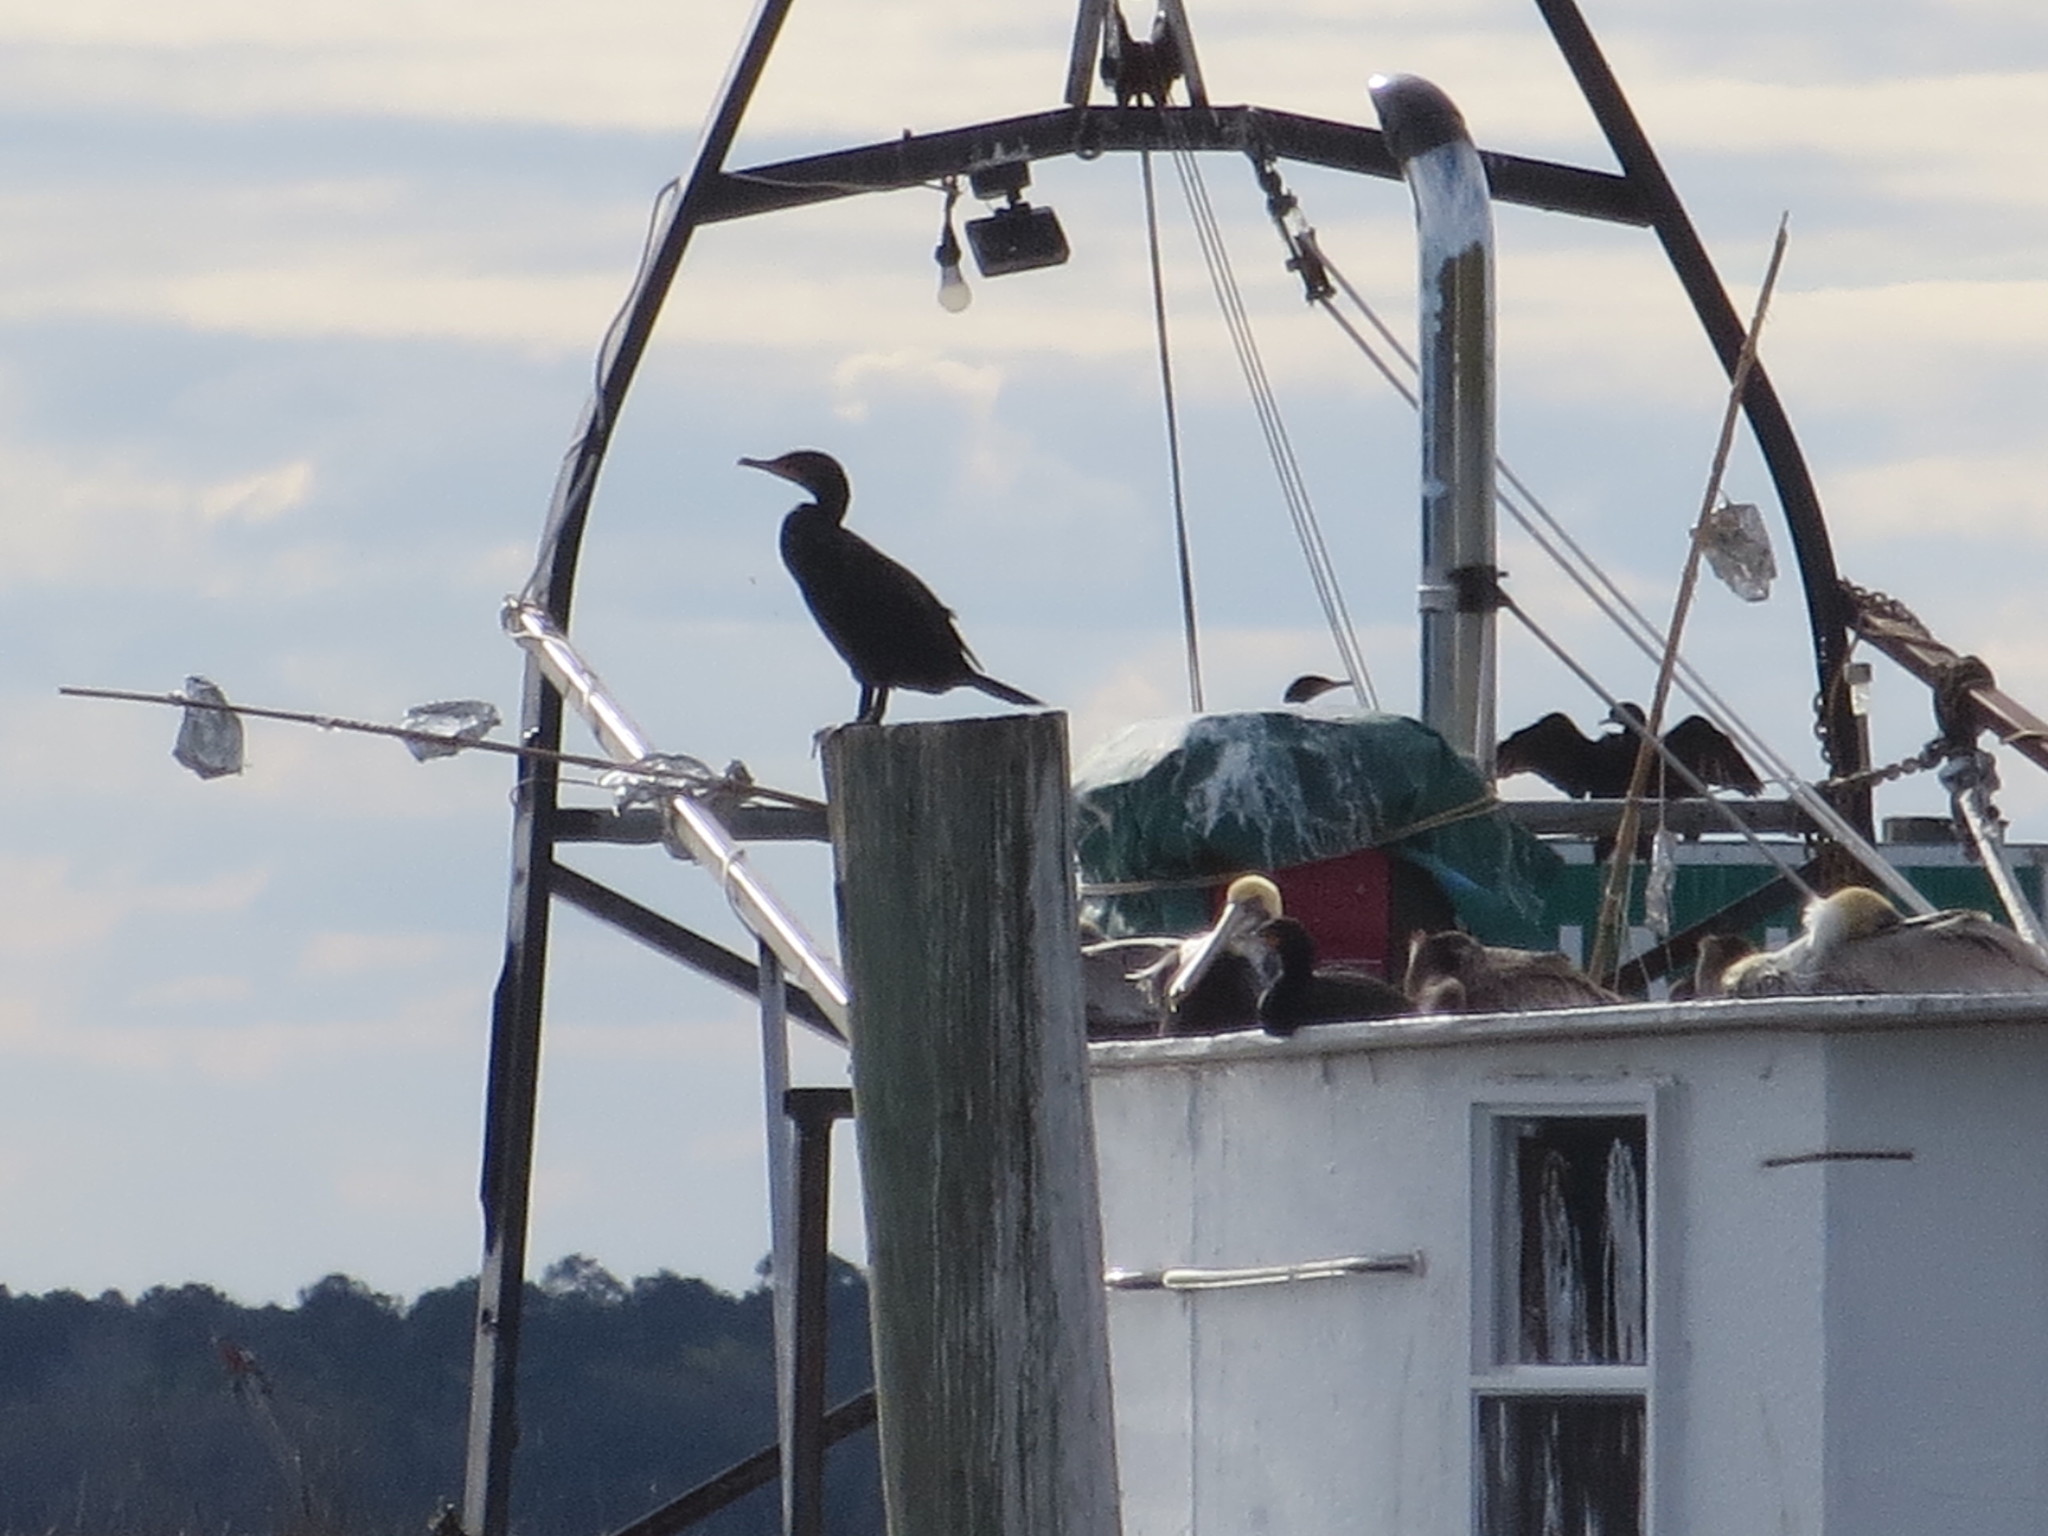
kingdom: Animalia
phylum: Chordata
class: Aves
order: Suliformes
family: Phalacrocoracidae
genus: Phalacrocorax
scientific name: Phalacrocorax auritus
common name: Double-crested cormorant
